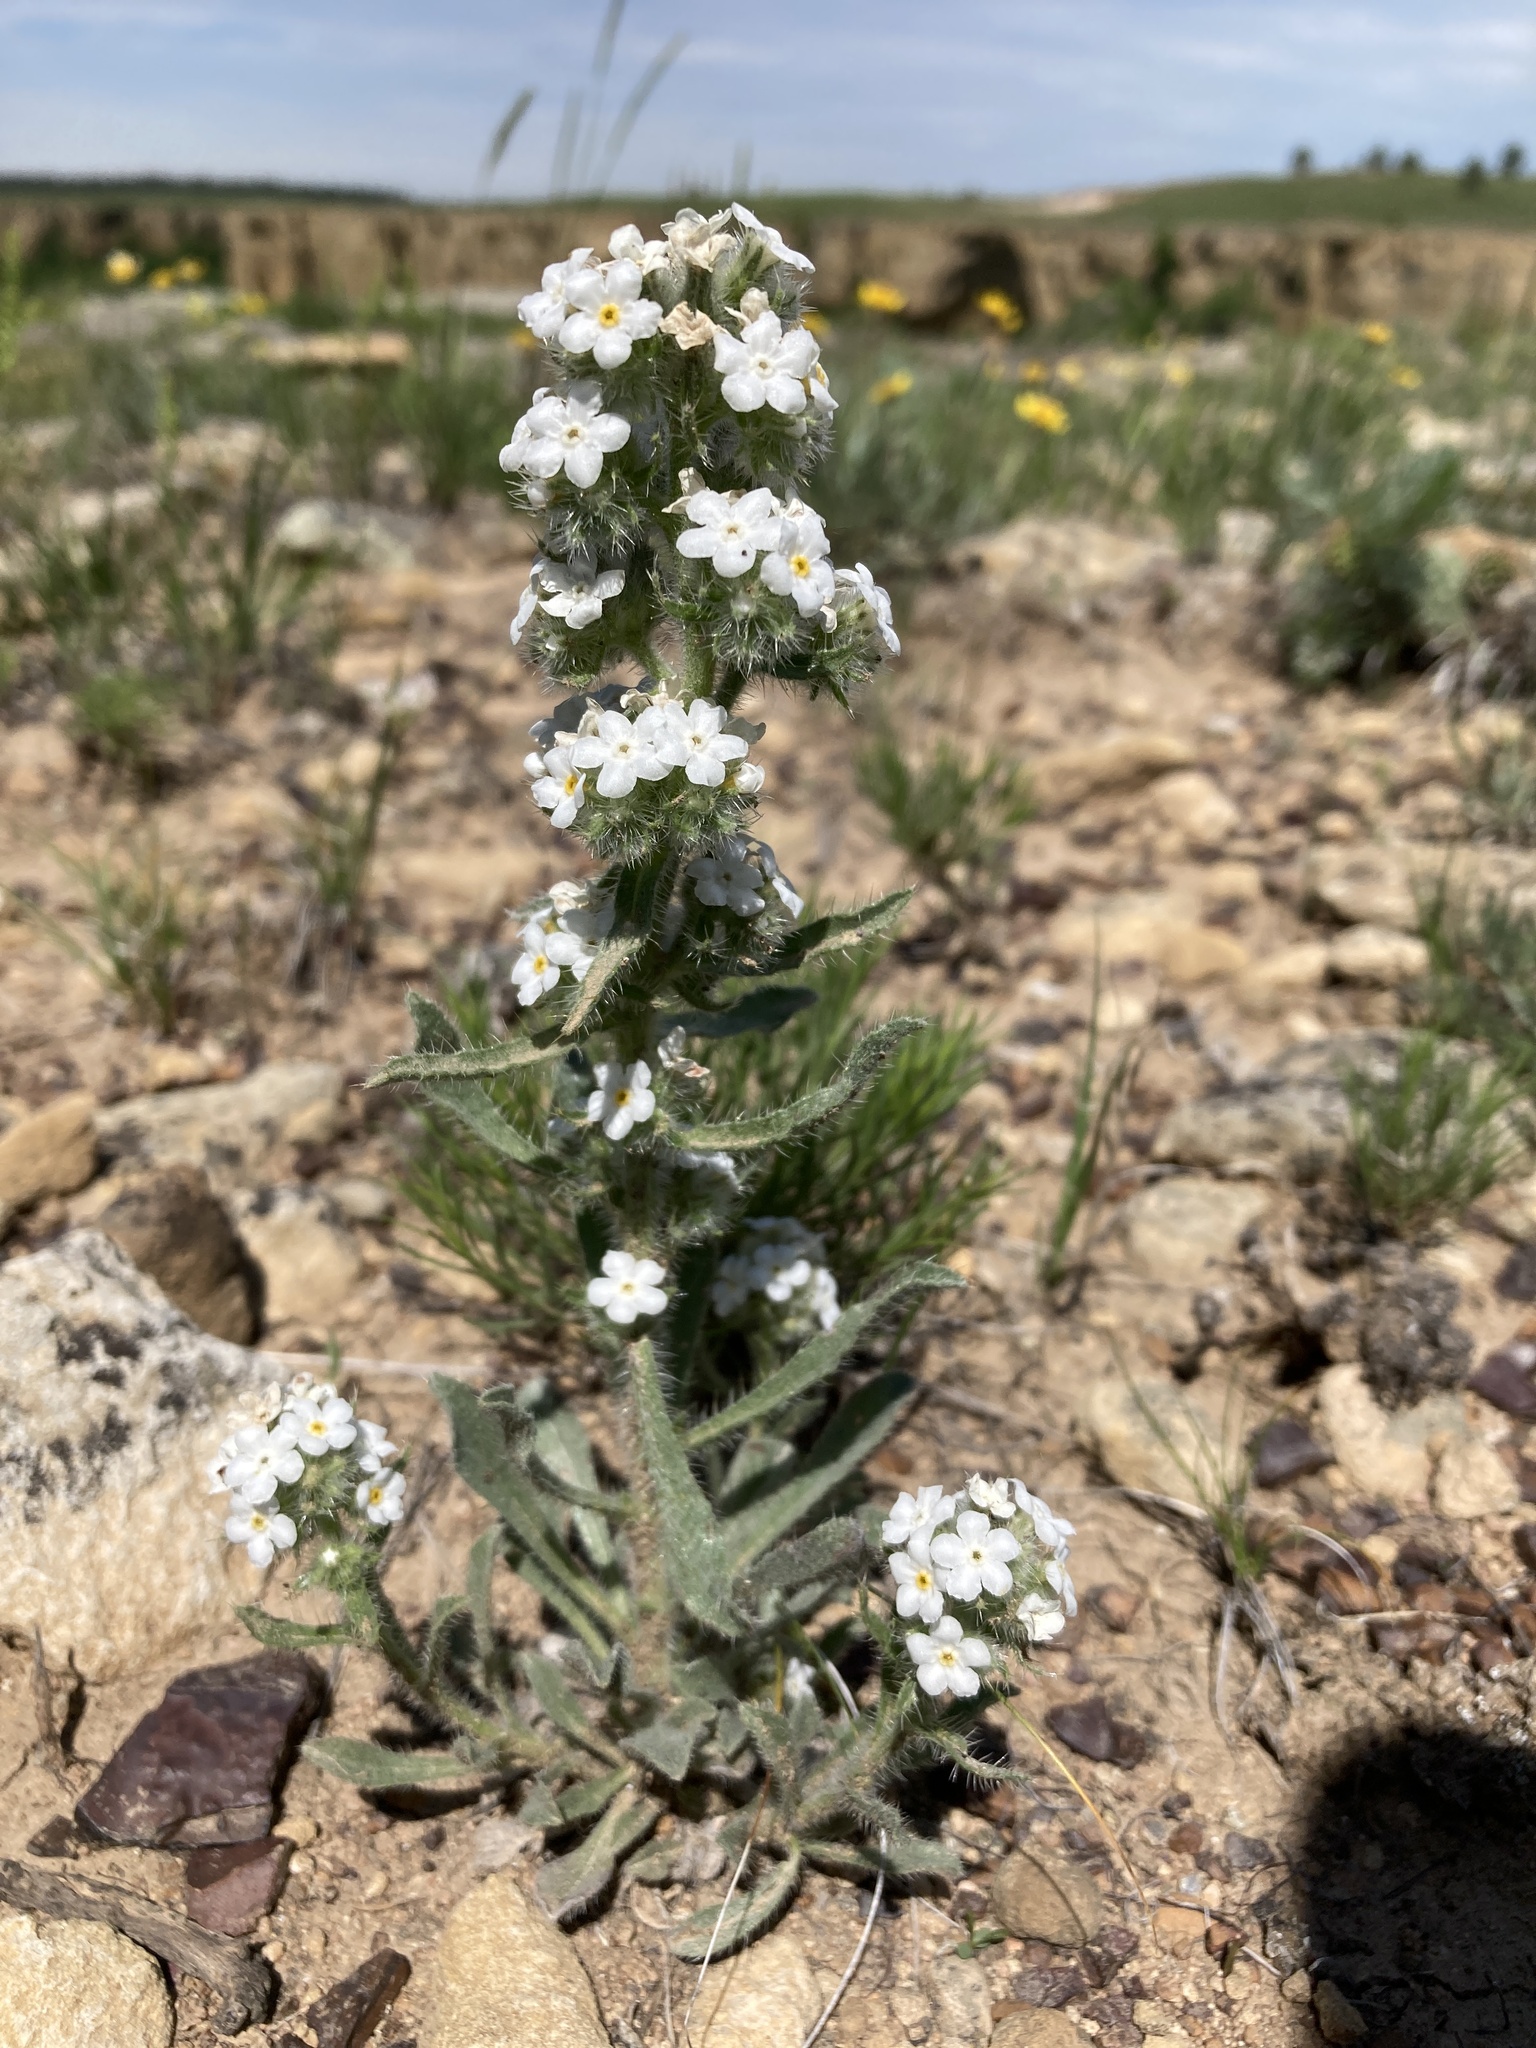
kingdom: Plantae
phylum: Tracheophyta
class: Magnoliopsida
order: Boraginales
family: Boraginaceae
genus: Oreocarya
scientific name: Oreocarya glomerata
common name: Macoun's cryptantha
